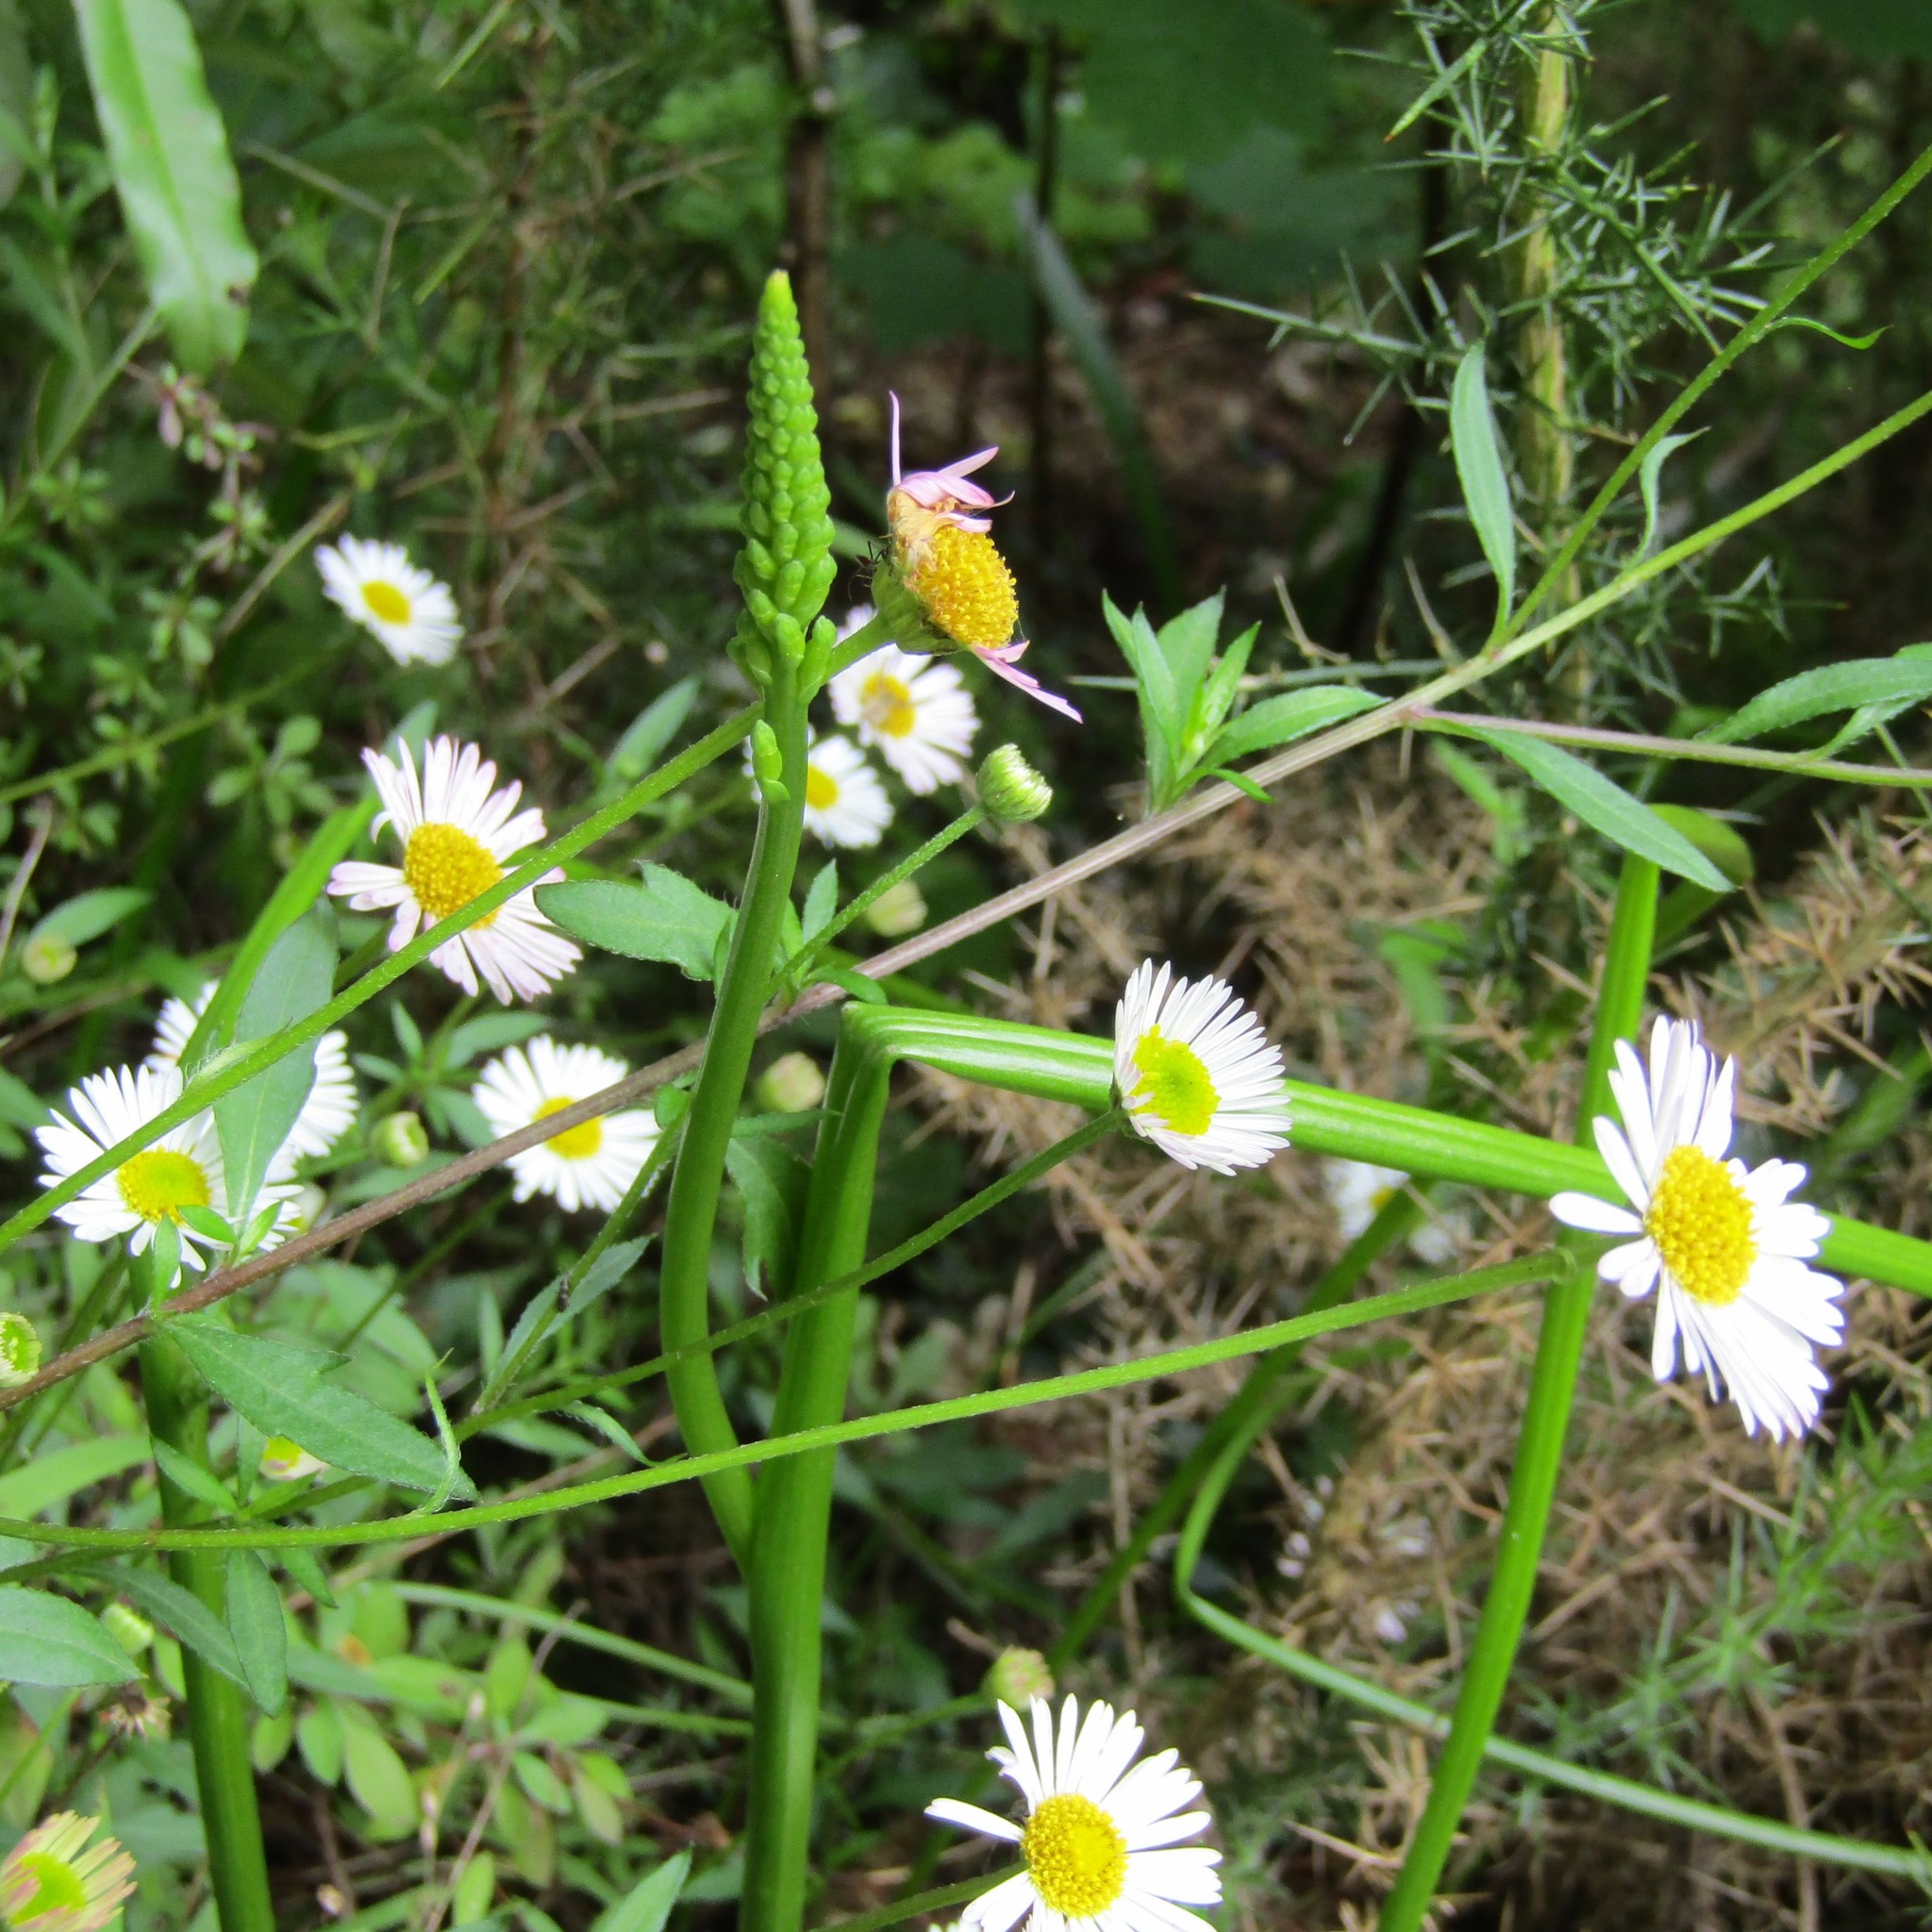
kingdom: Plantae
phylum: Tracheophyta
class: Liliopsida
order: Asparagales
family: Orchidaceae
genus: Microtis
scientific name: Microtis unifolia
